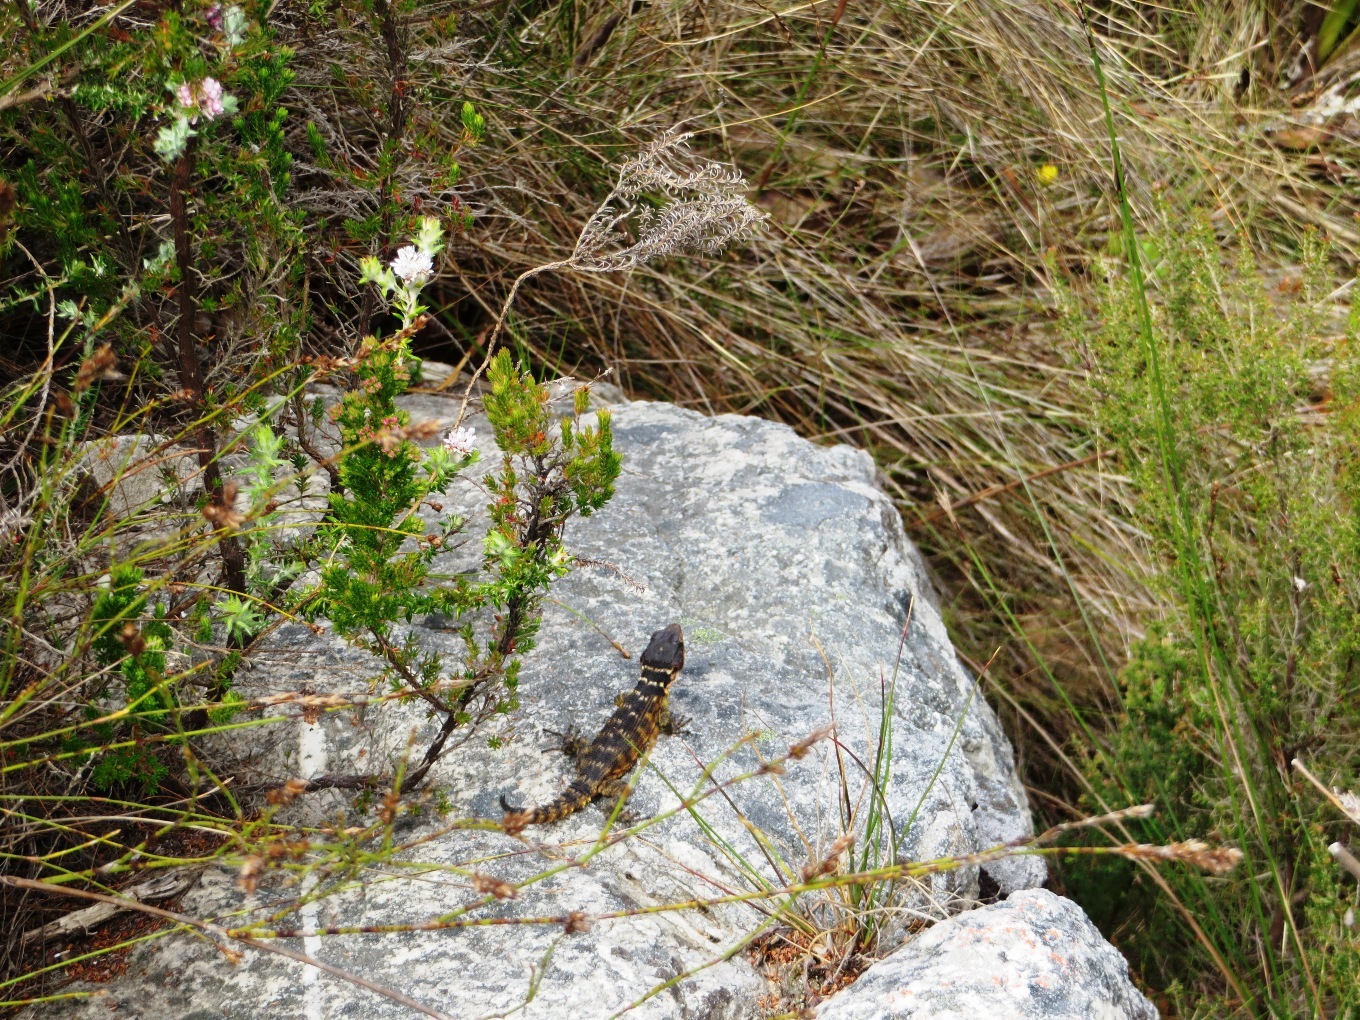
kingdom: Animalia
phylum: Chordata
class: Squamata
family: Cordylidae
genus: Pseudocordylus
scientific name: Pseudocordylus microlepidotus
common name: Cape crag lizard
